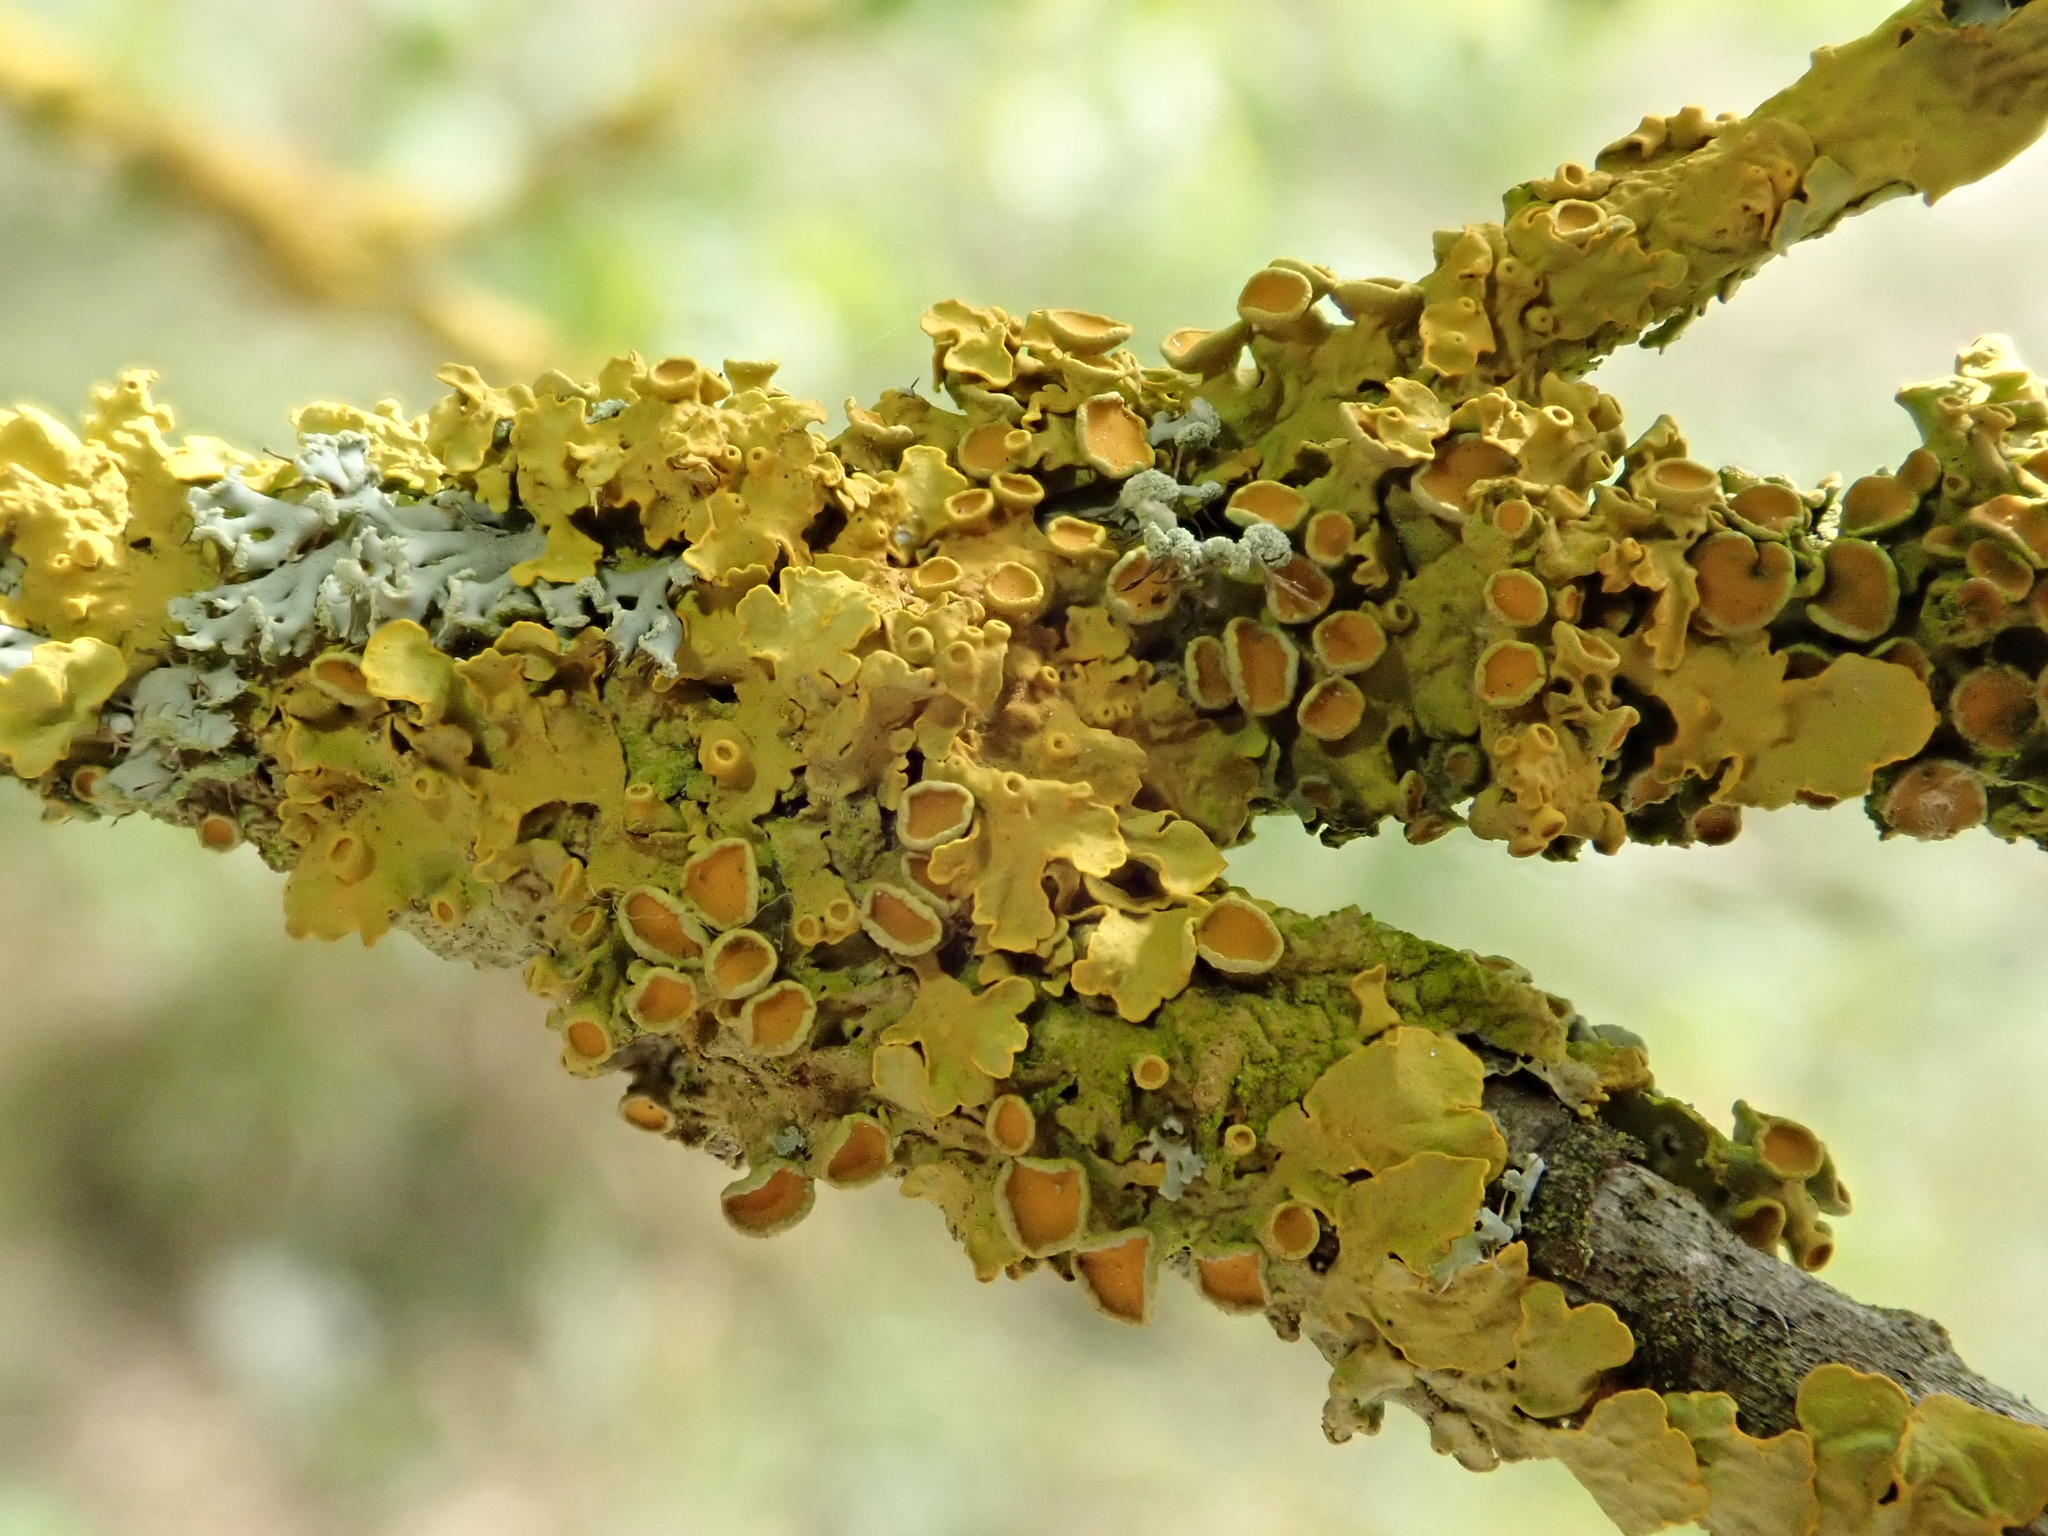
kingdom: Fungi
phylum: Ascomycota
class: Lecanoromycetes
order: Teloschistales
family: Teloschistaceae
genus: Xanthoria
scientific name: Xanthoria parietina
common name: Common orange lichen
